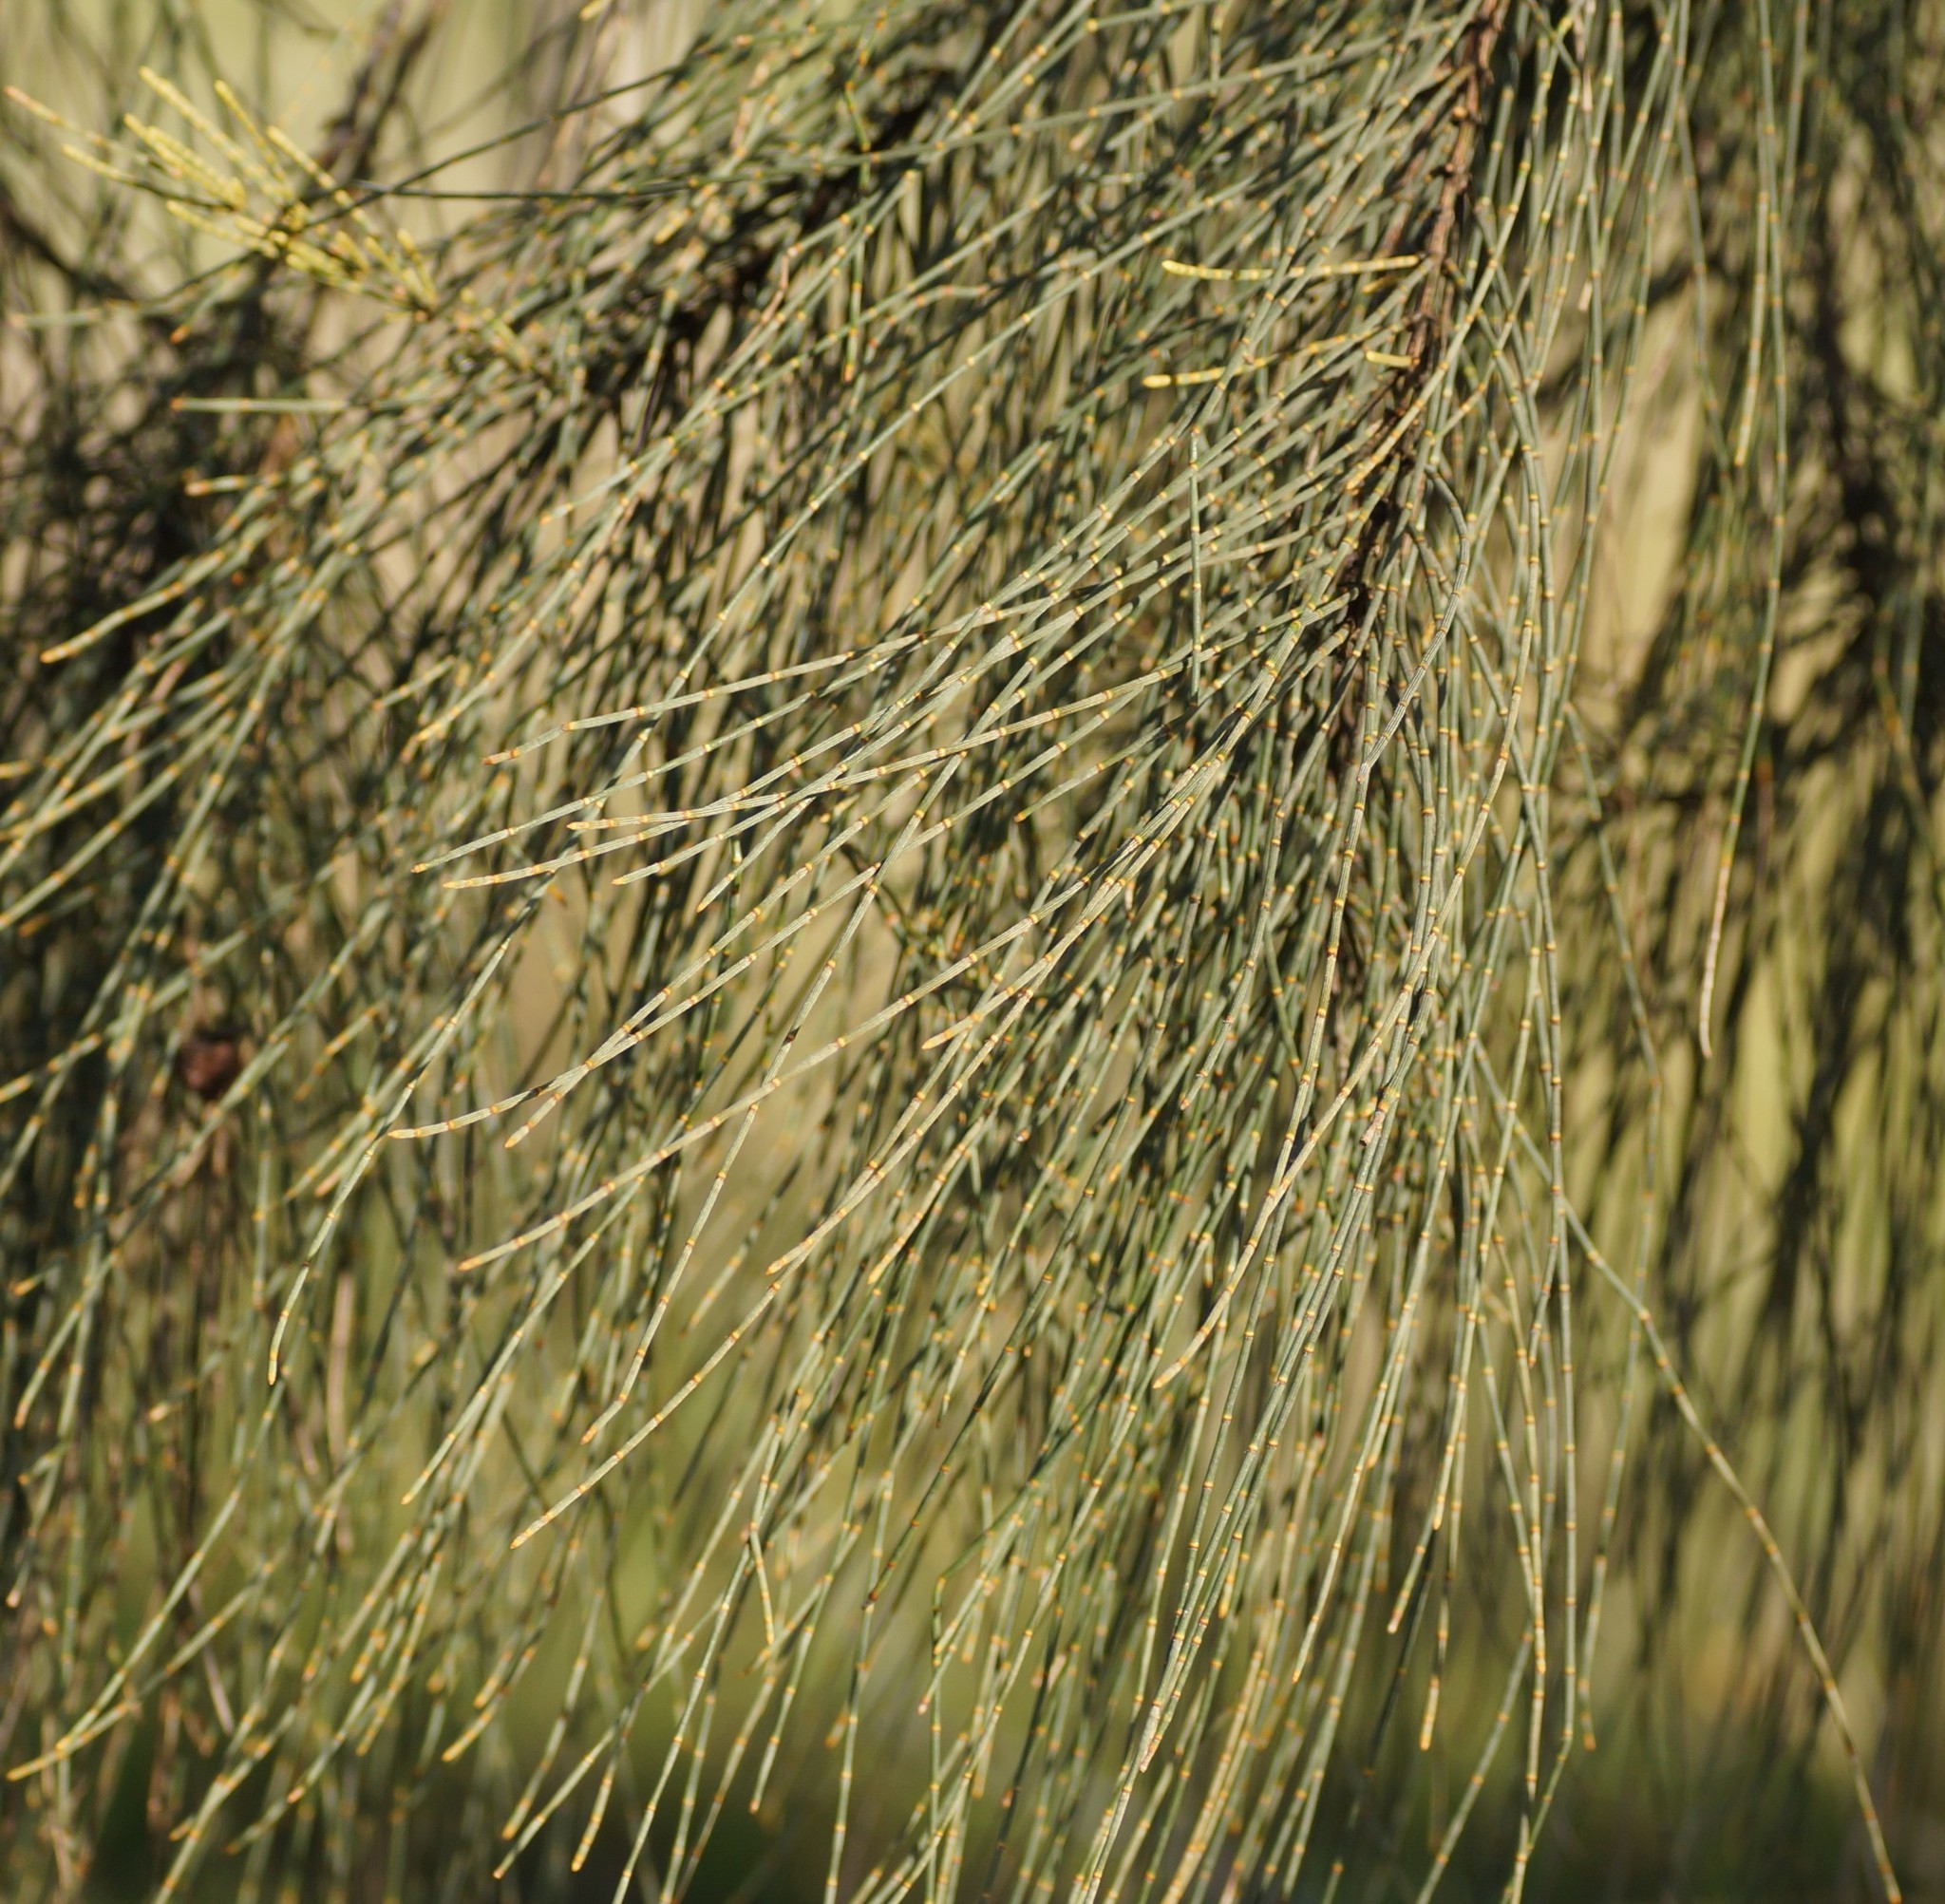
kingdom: Plantae
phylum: Tracheophyta
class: Magnoliopsida
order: Fagales
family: Casuarinaceae
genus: Allocasuarina
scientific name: Allocasuarina verticillata
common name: Drooping she-oak
